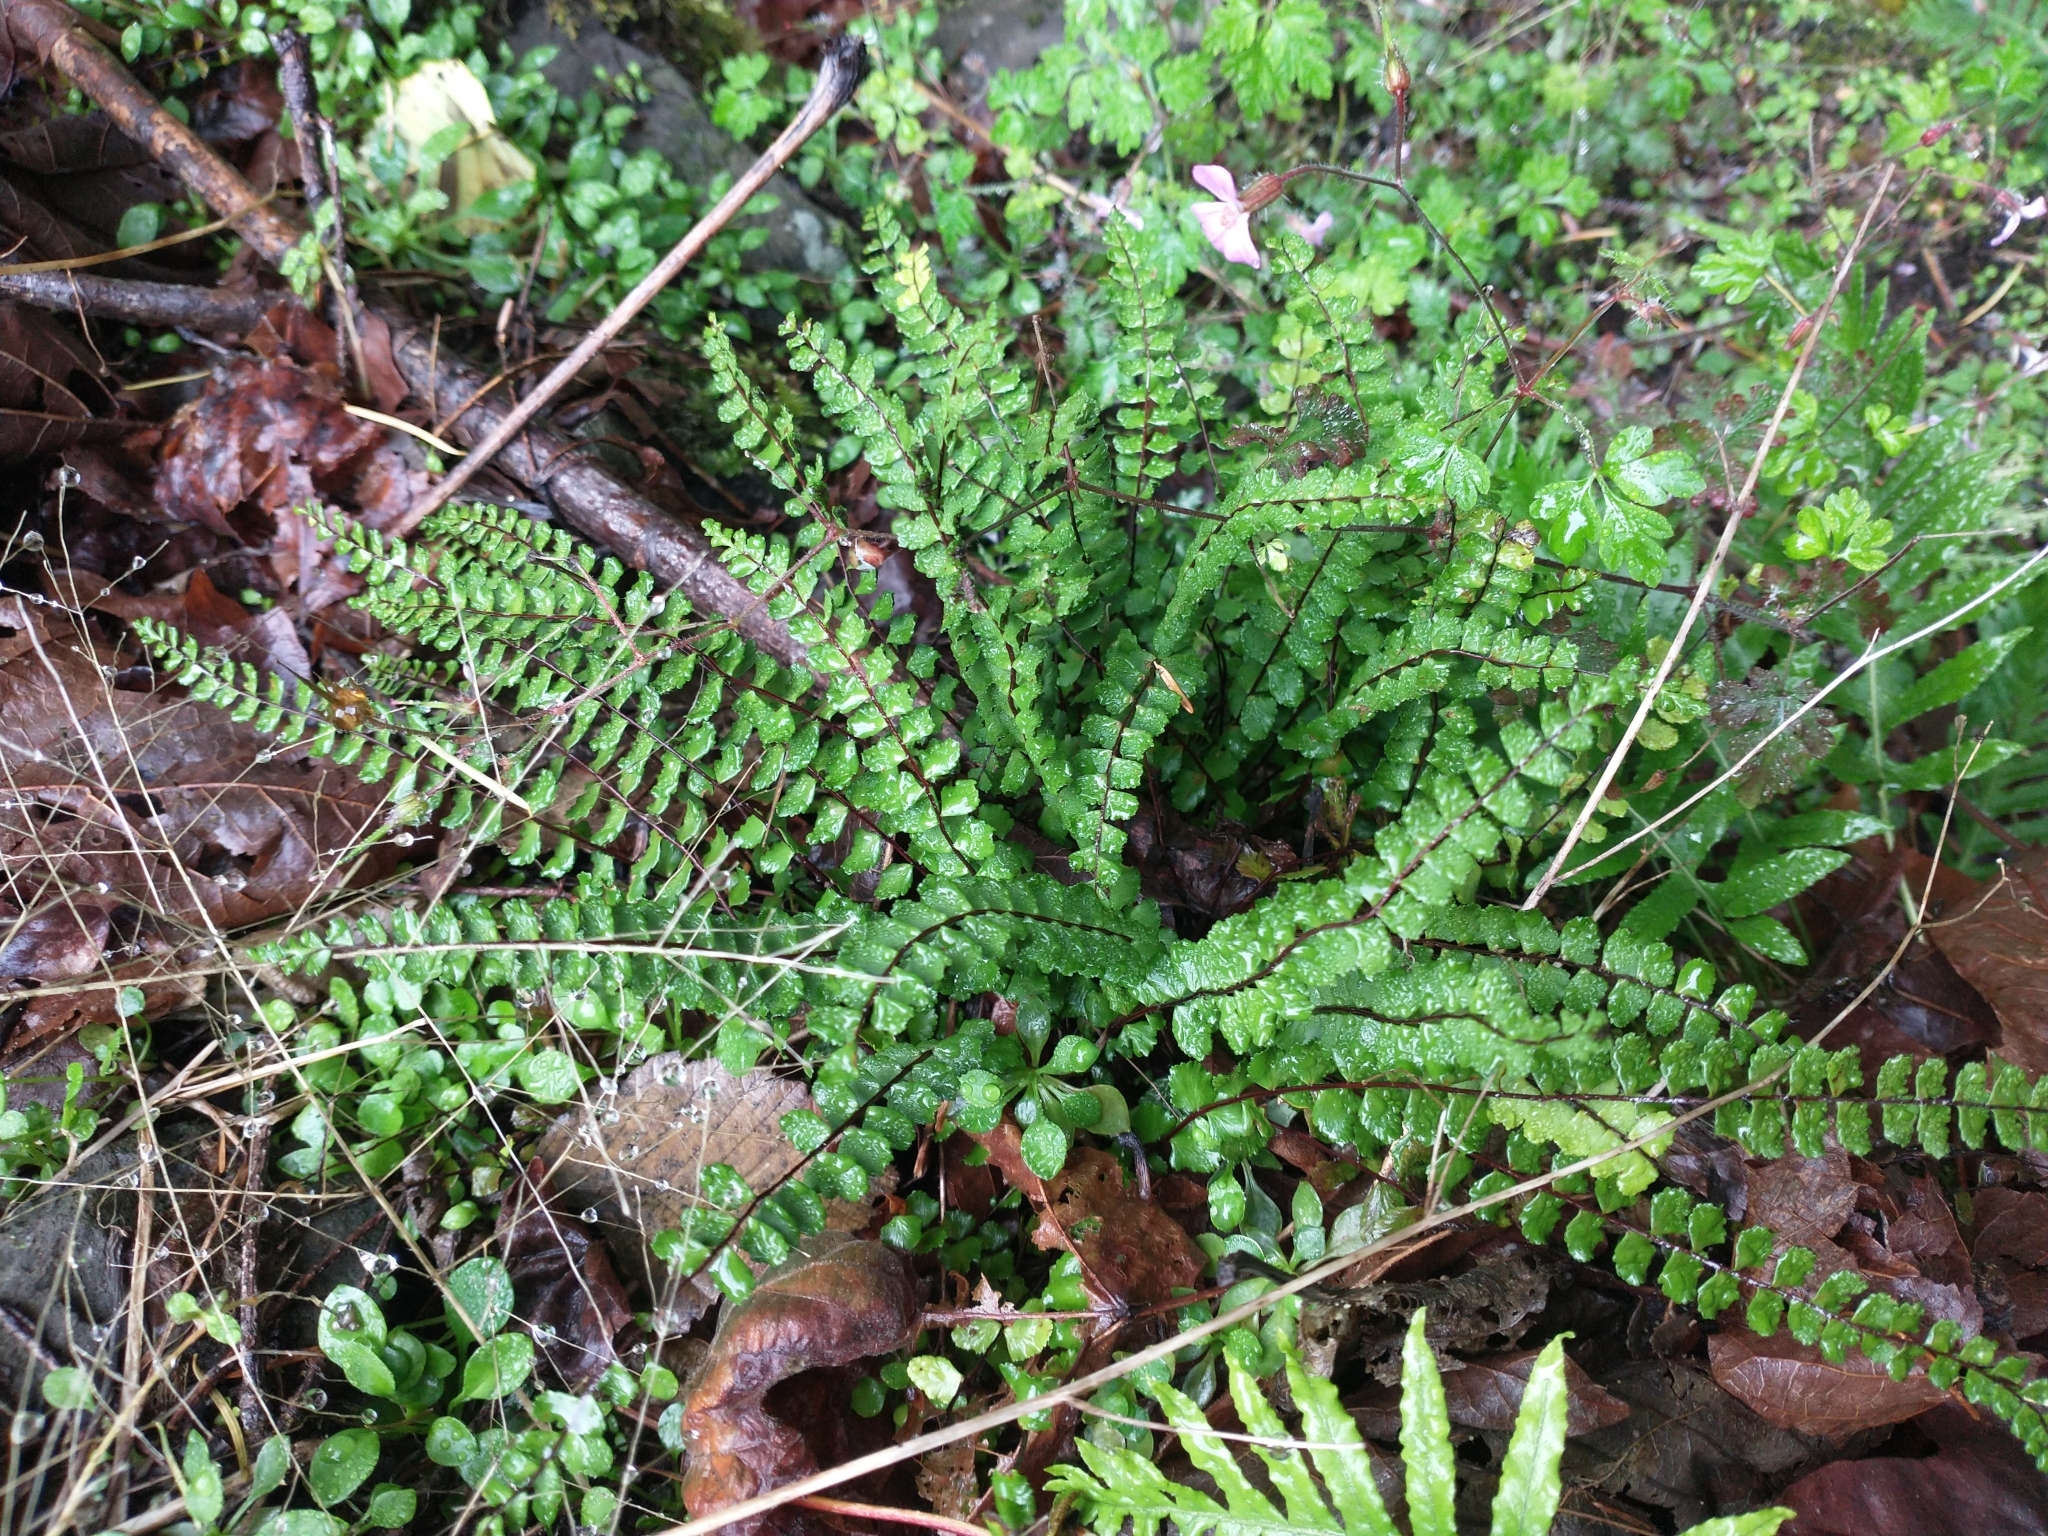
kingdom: Plantae
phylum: Tracheophyta
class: Polypodiopsida
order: Polypodiales
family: Aspleniaceae
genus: Asplenium
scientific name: Asplenium trichomanes
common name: Maidenhair spleenwort
